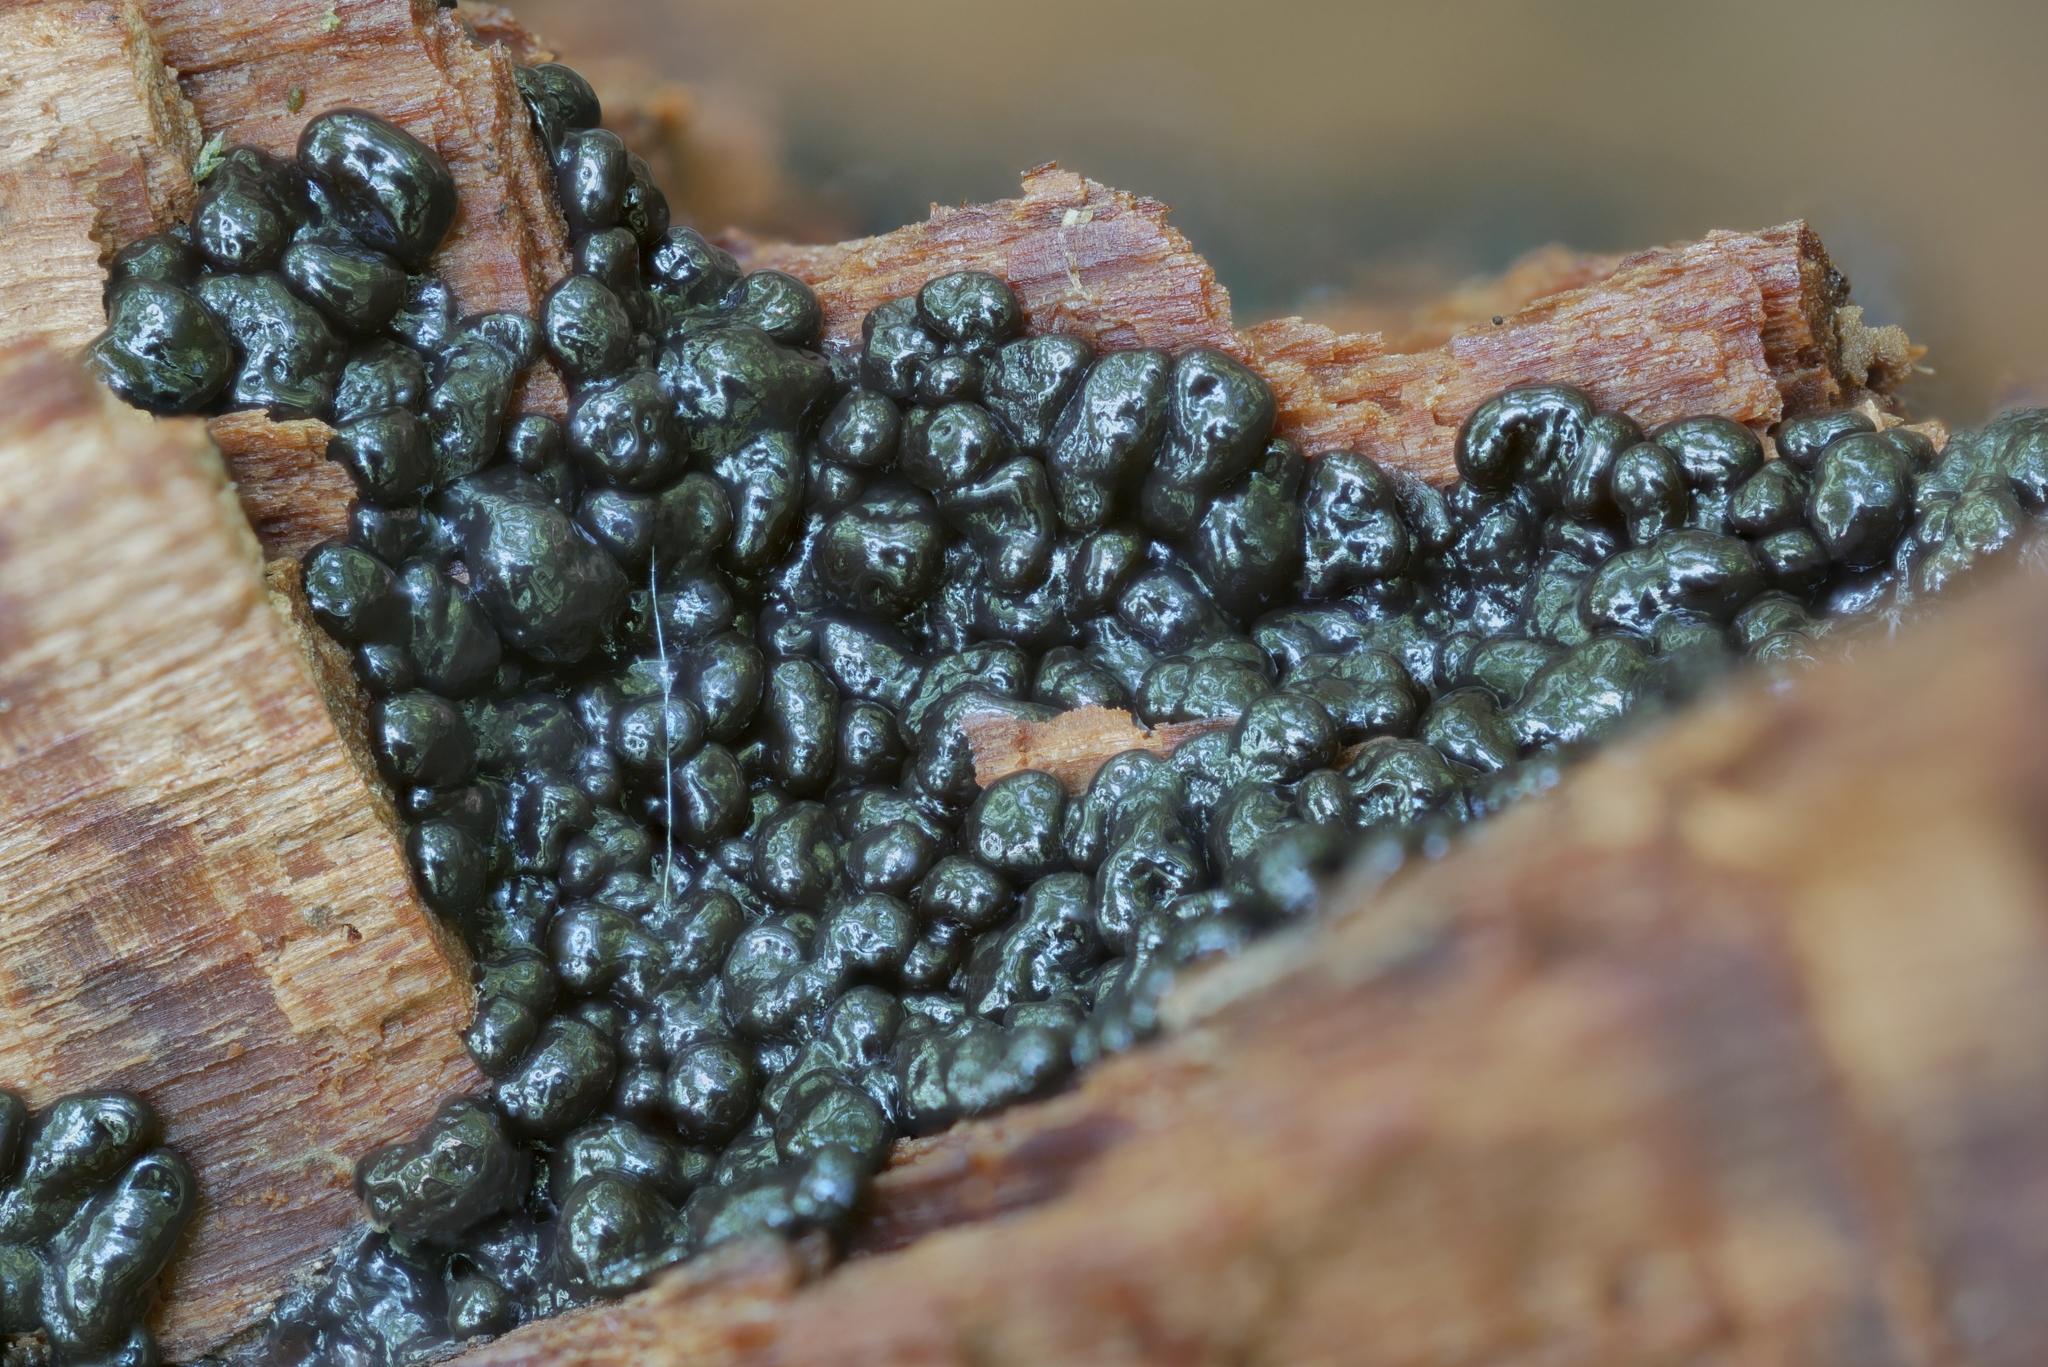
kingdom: Protozoa
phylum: Mycetozoa
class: Myxomycetes
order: Cribrariales
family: Cribrariaceae
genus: Lindbladia
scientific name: Lindbladia tubulina
